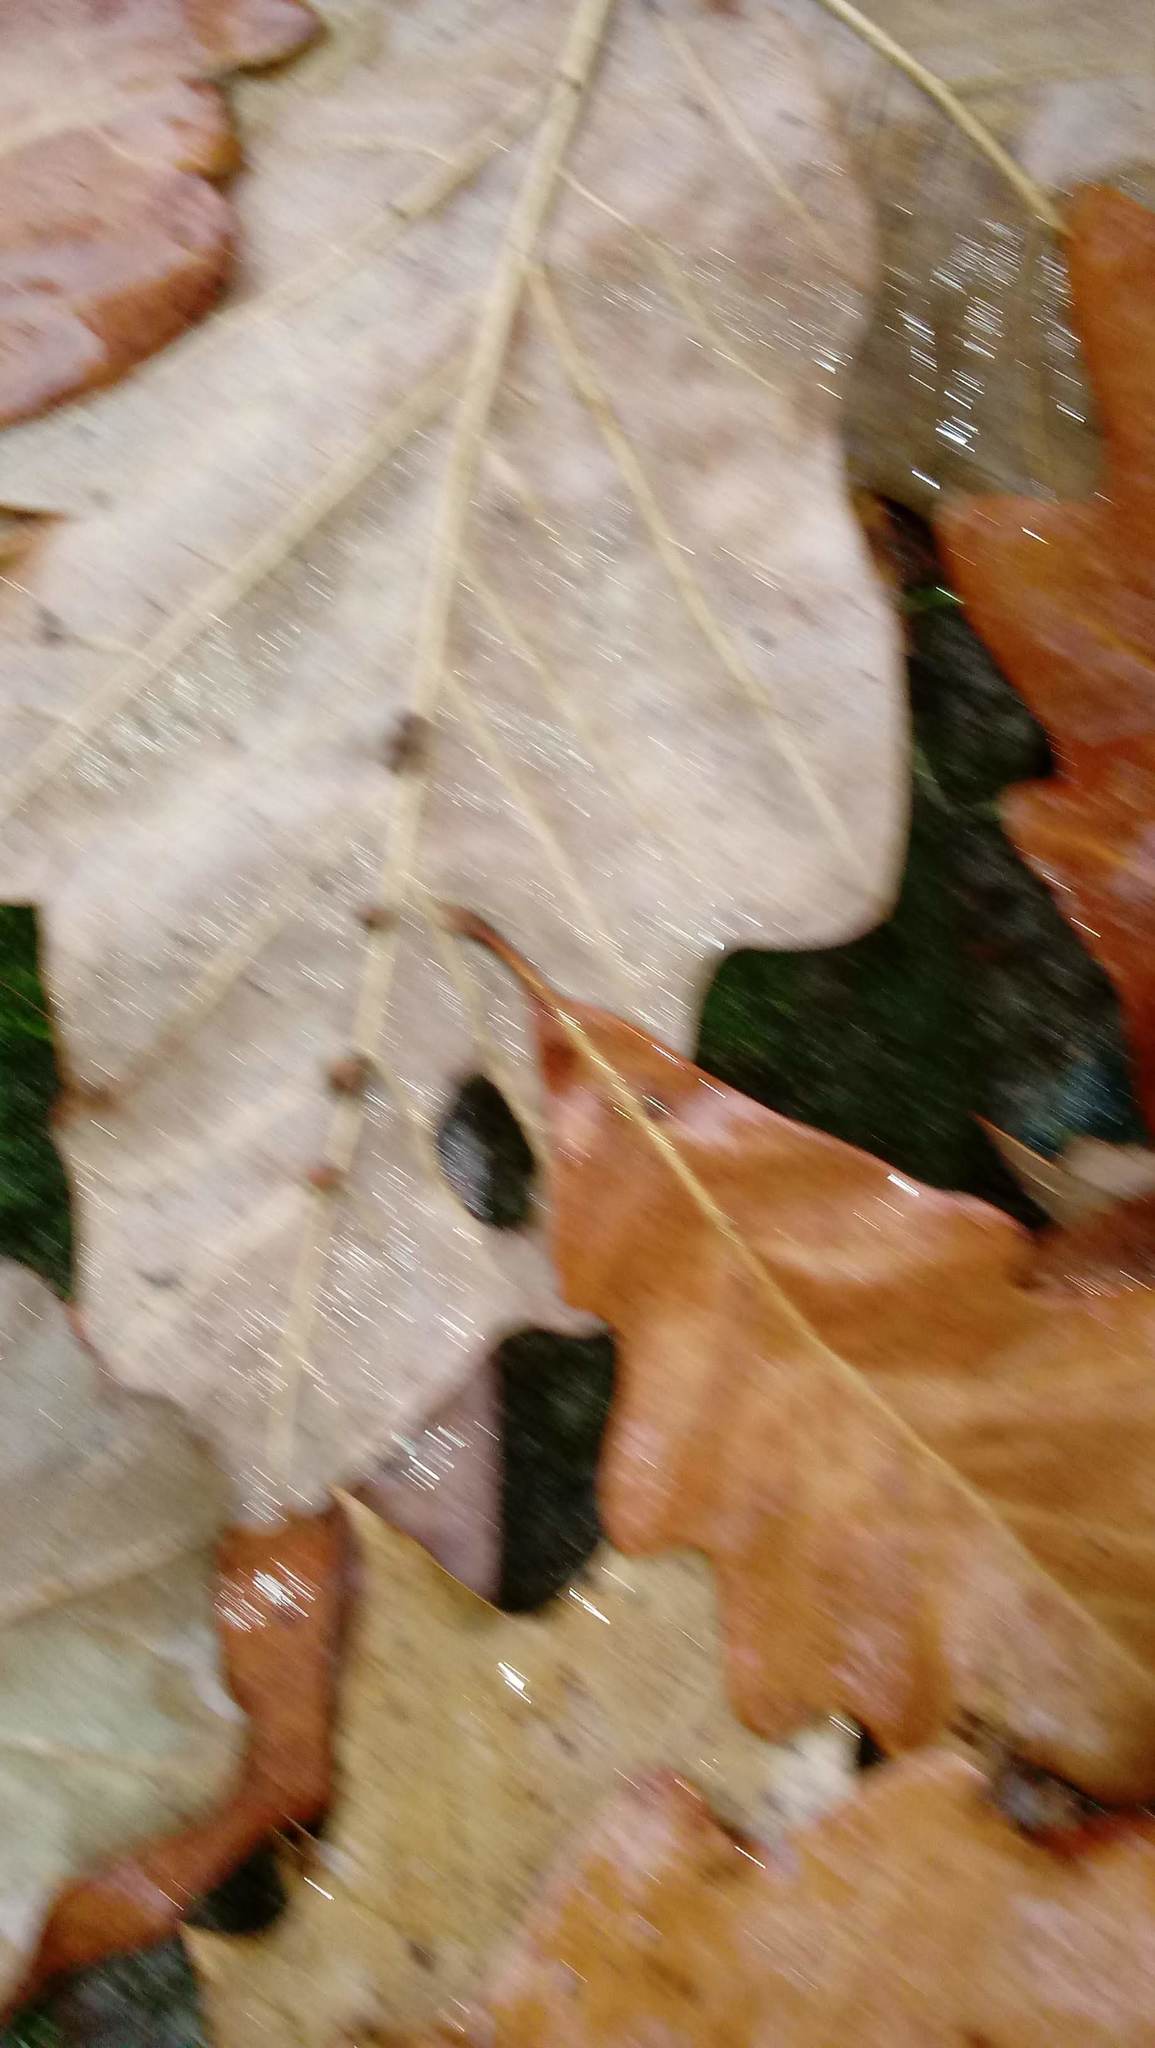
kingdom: Animalia
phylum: Arthropoda
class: Insecta
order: Hymenoptera
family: Cynipidae
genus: Andricus
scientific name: Andricus Druon ignotum
